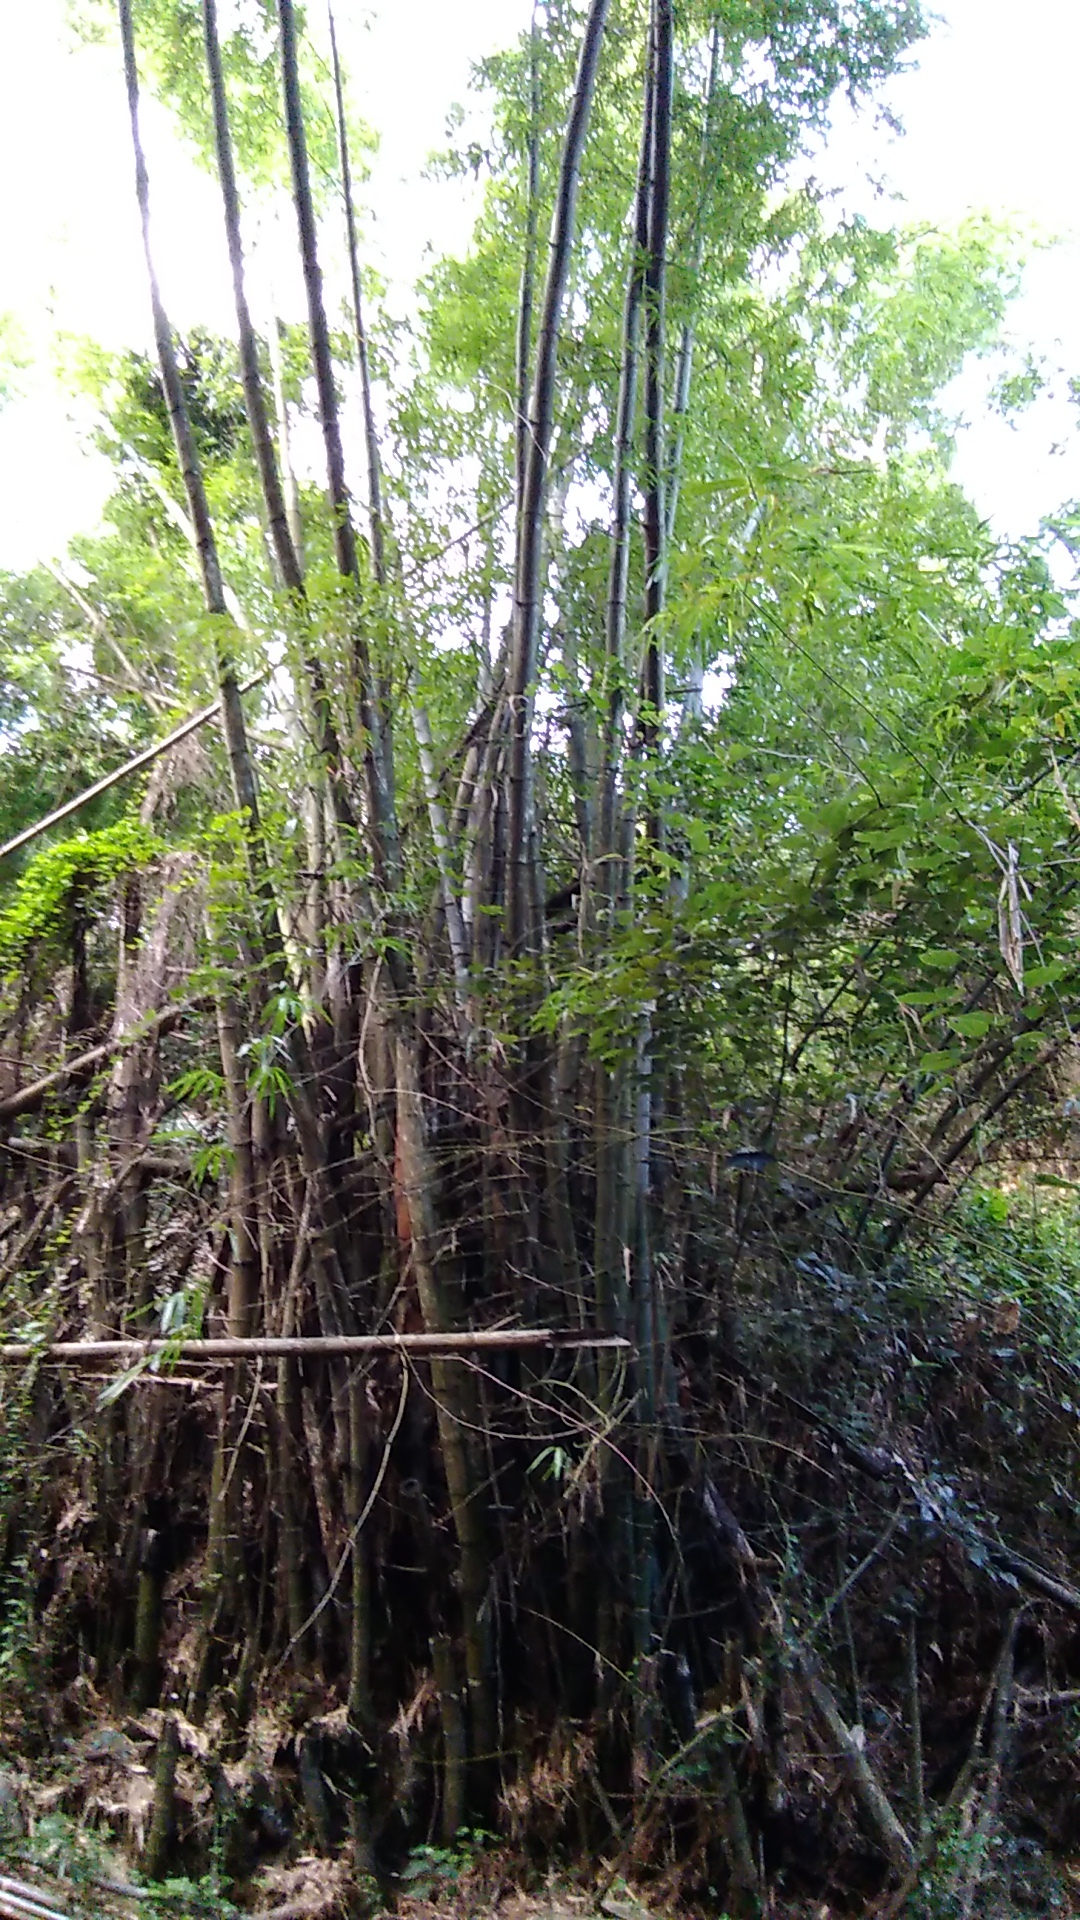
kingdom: Plantae
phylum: Tracheophyta
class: Liliopsida
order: Poales
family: Poaceae
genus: Bambusa
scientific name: Bambusa spinosa
